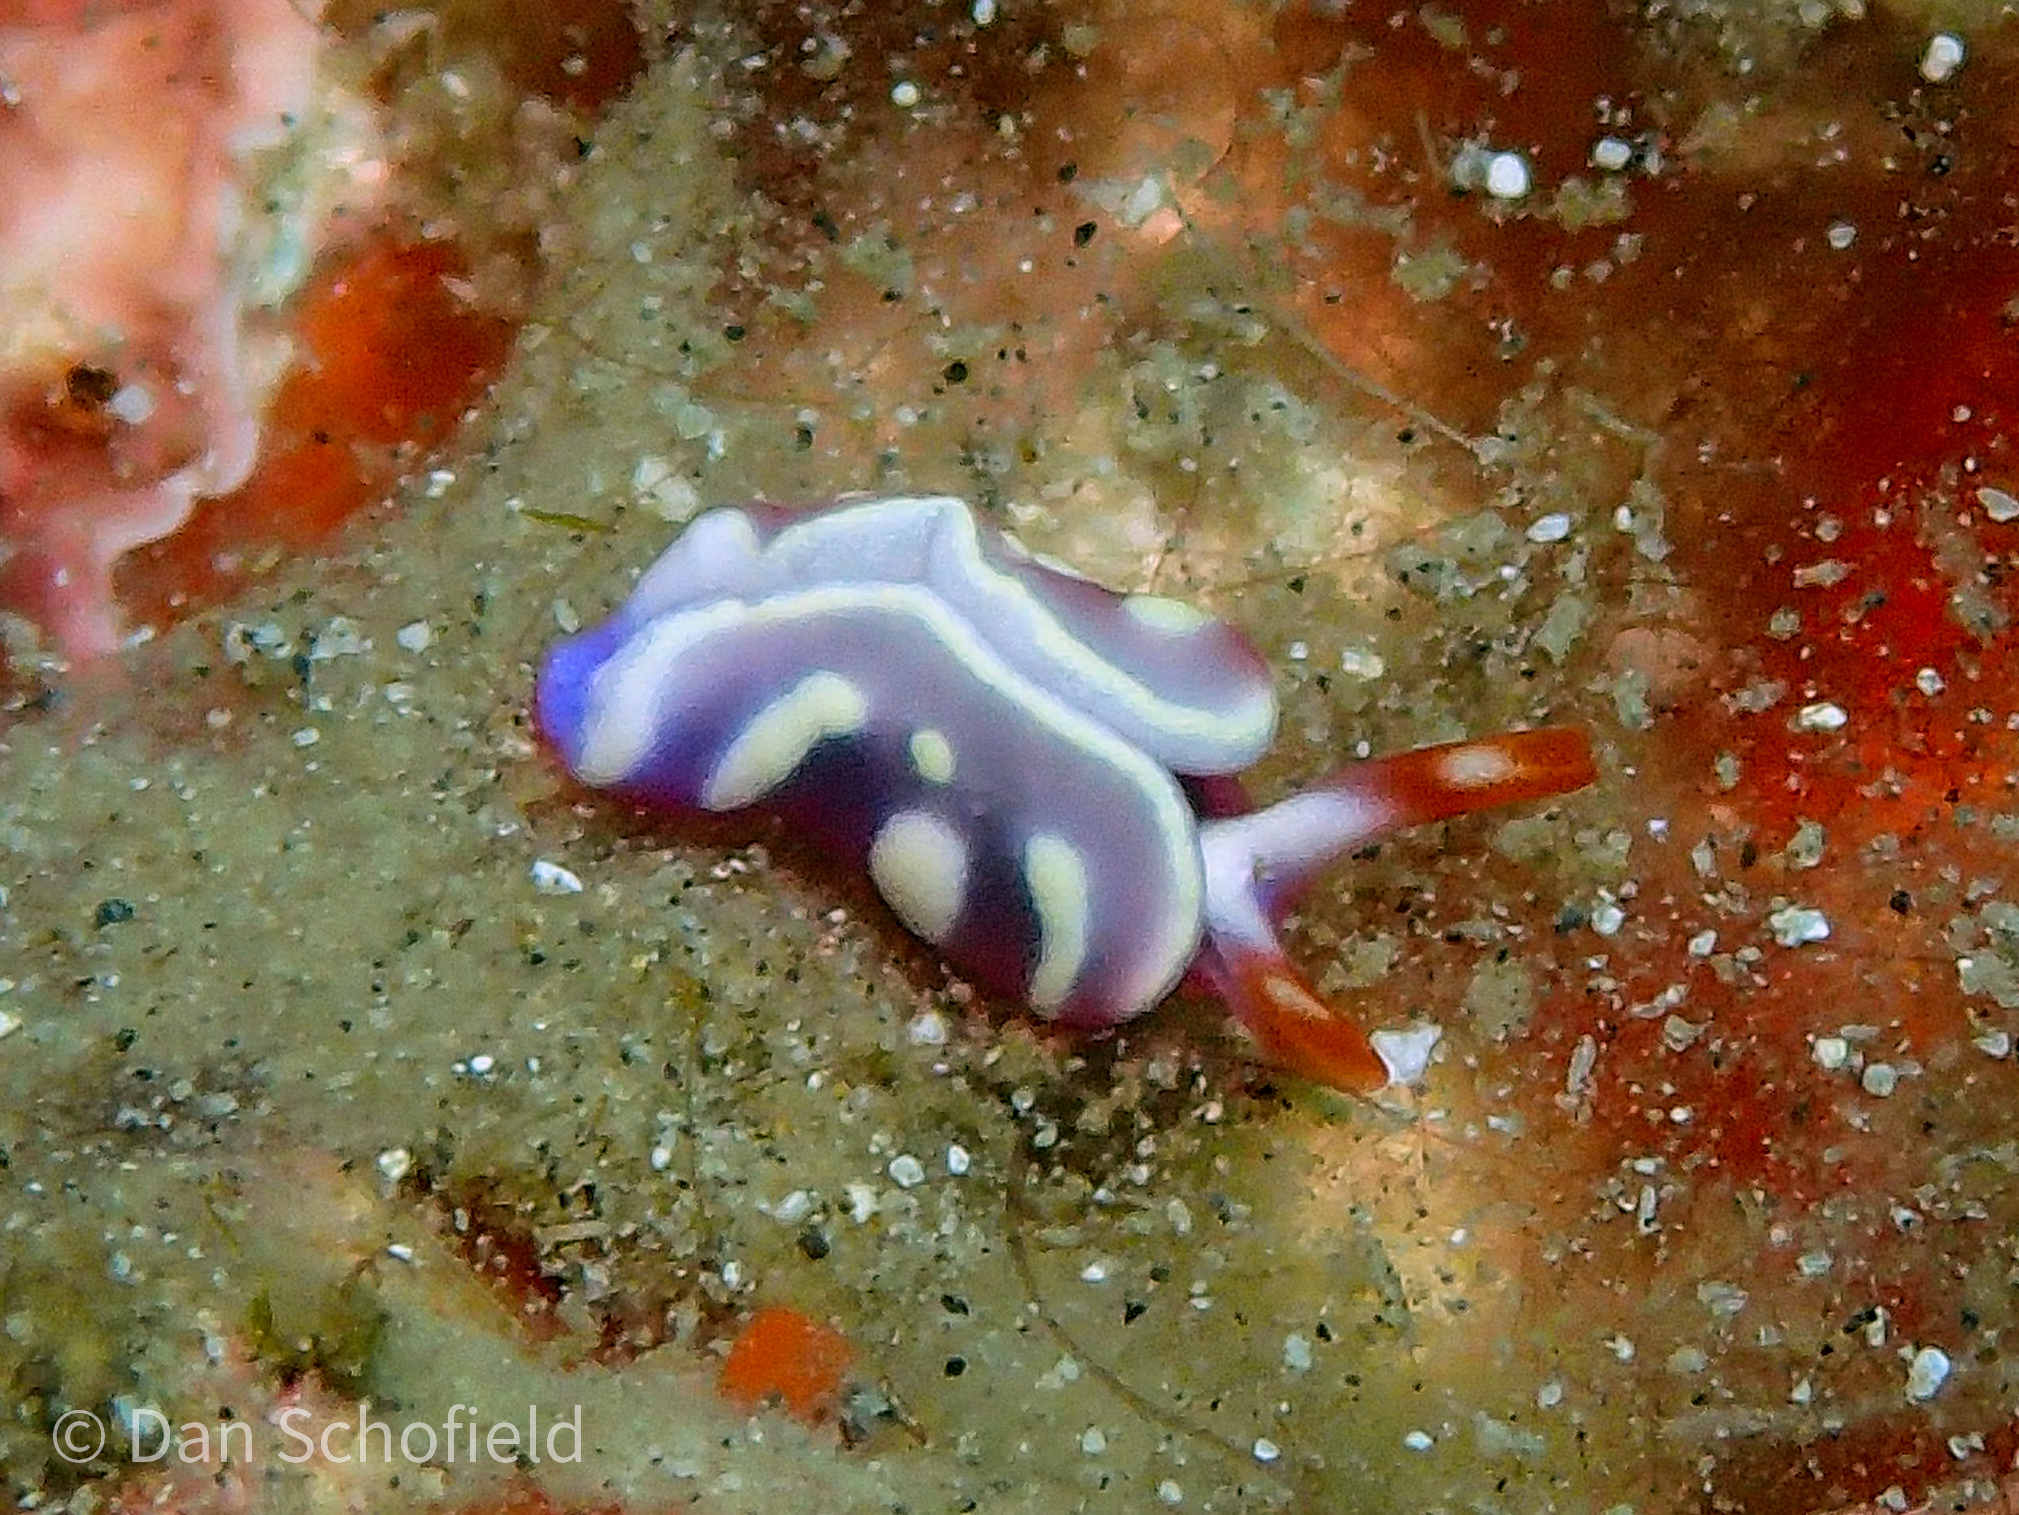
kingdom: Animalia
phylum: Mollusca
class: Gastropoda
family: Plakobranchidae
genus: Thuridilla
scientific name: Thuridilla albopustulosa
